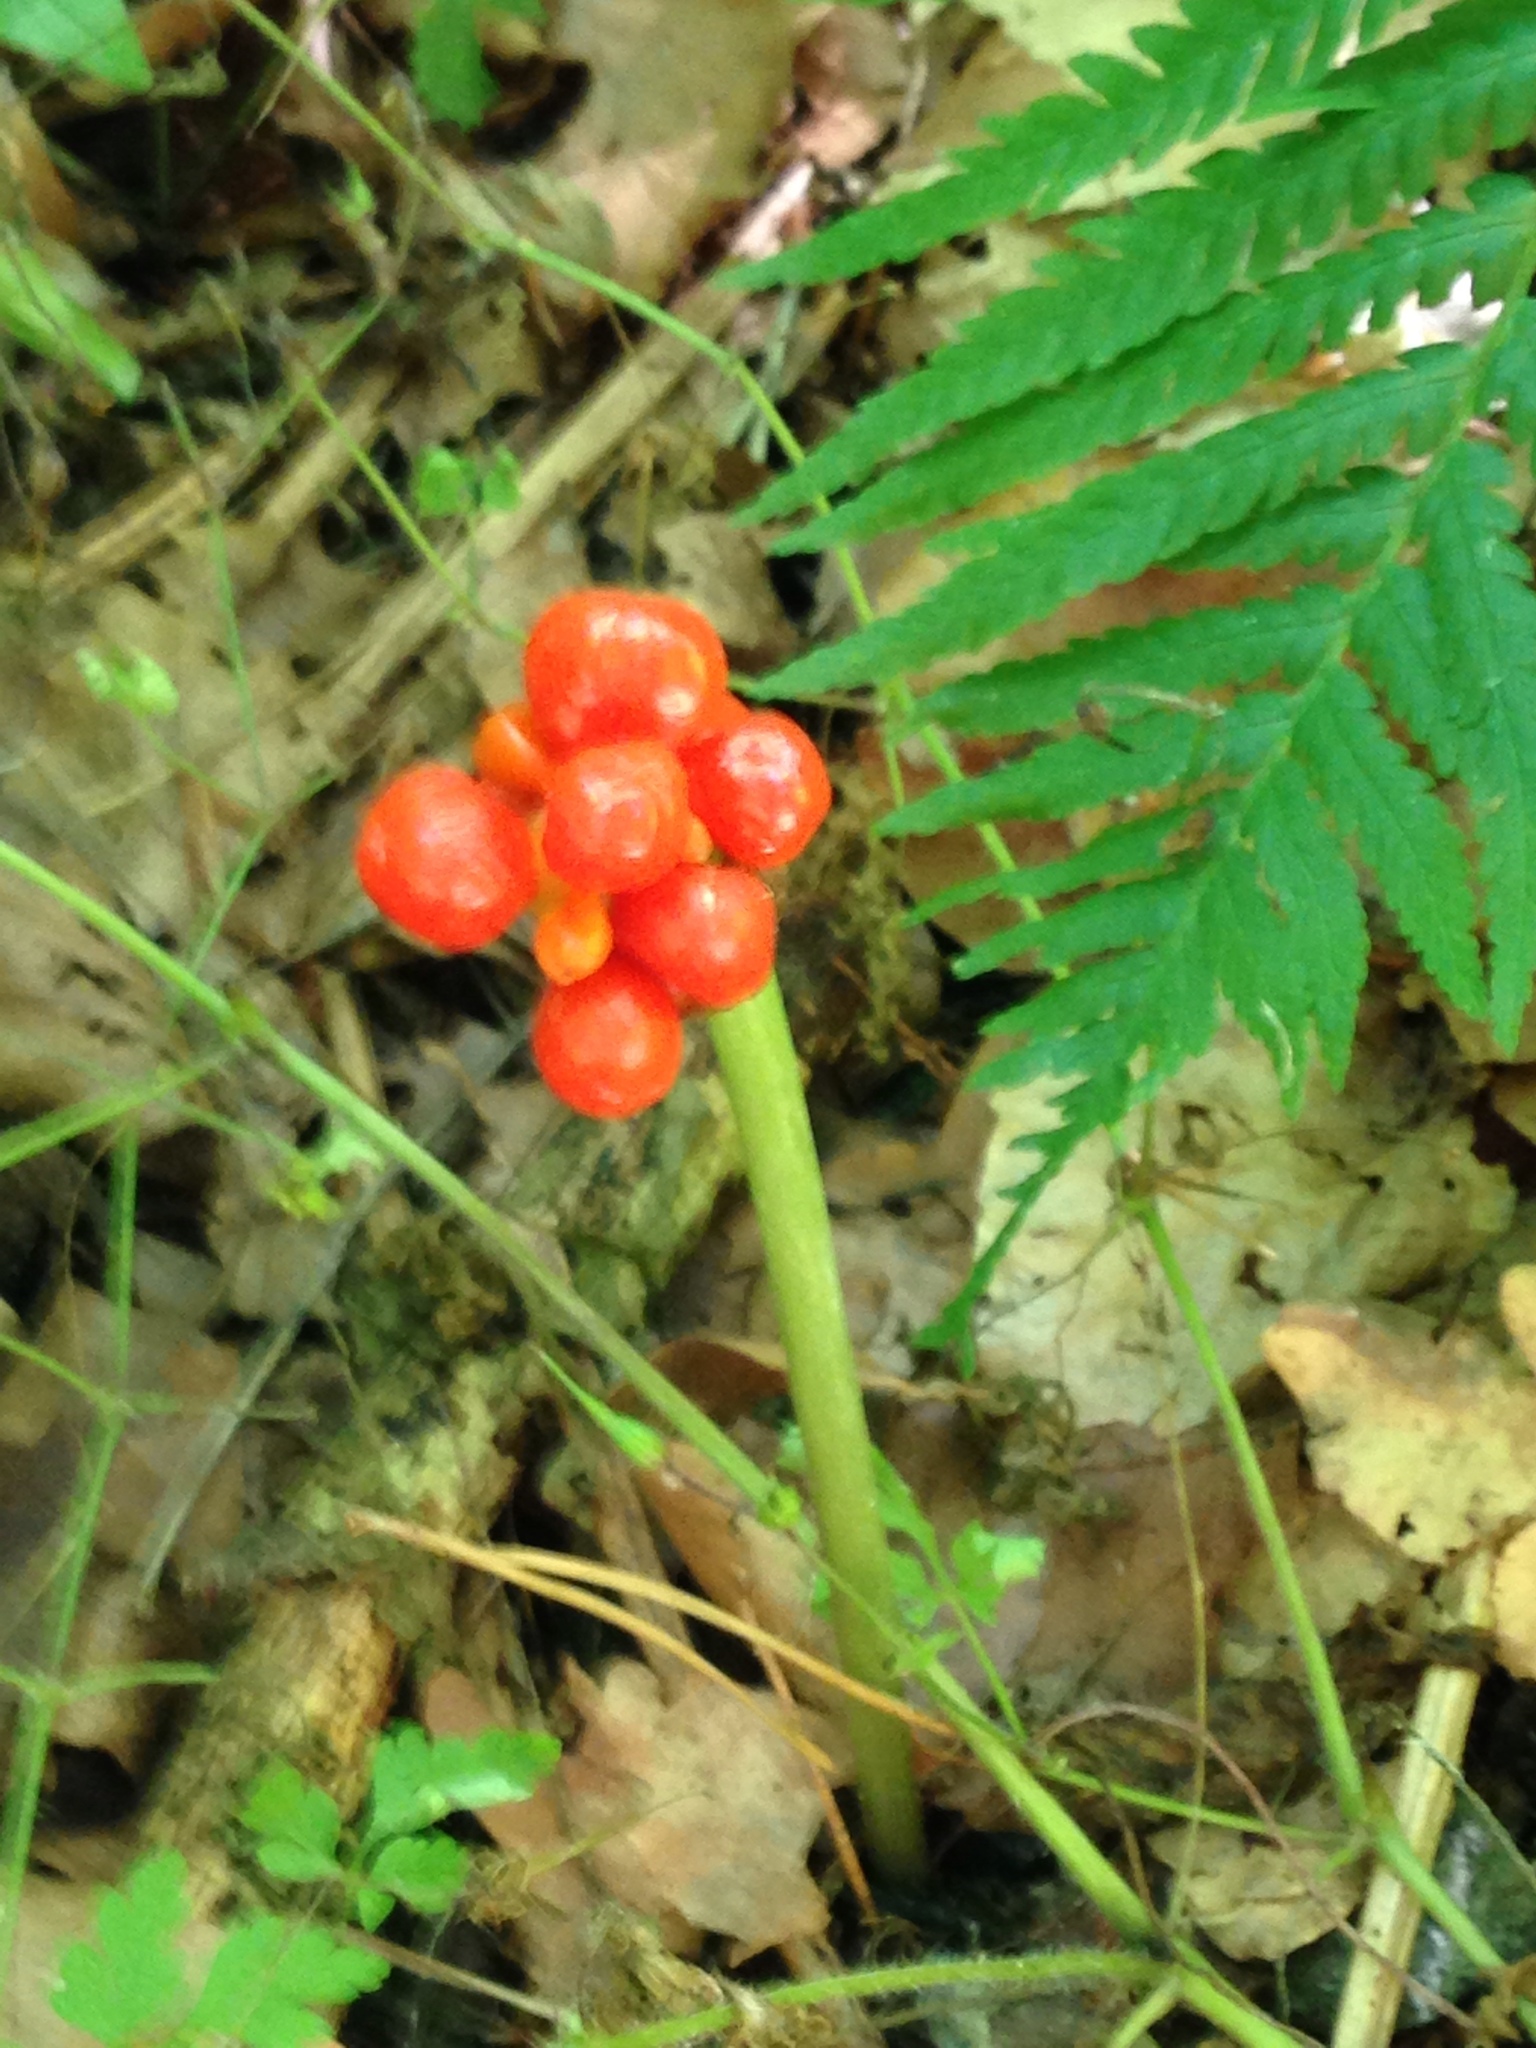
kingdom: Plantae
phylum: Tracheophyta
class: Liliopsida
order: Alismatales
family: Araceae
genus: Arum
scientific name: Arum maculatum
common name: Lords-and-ladies
